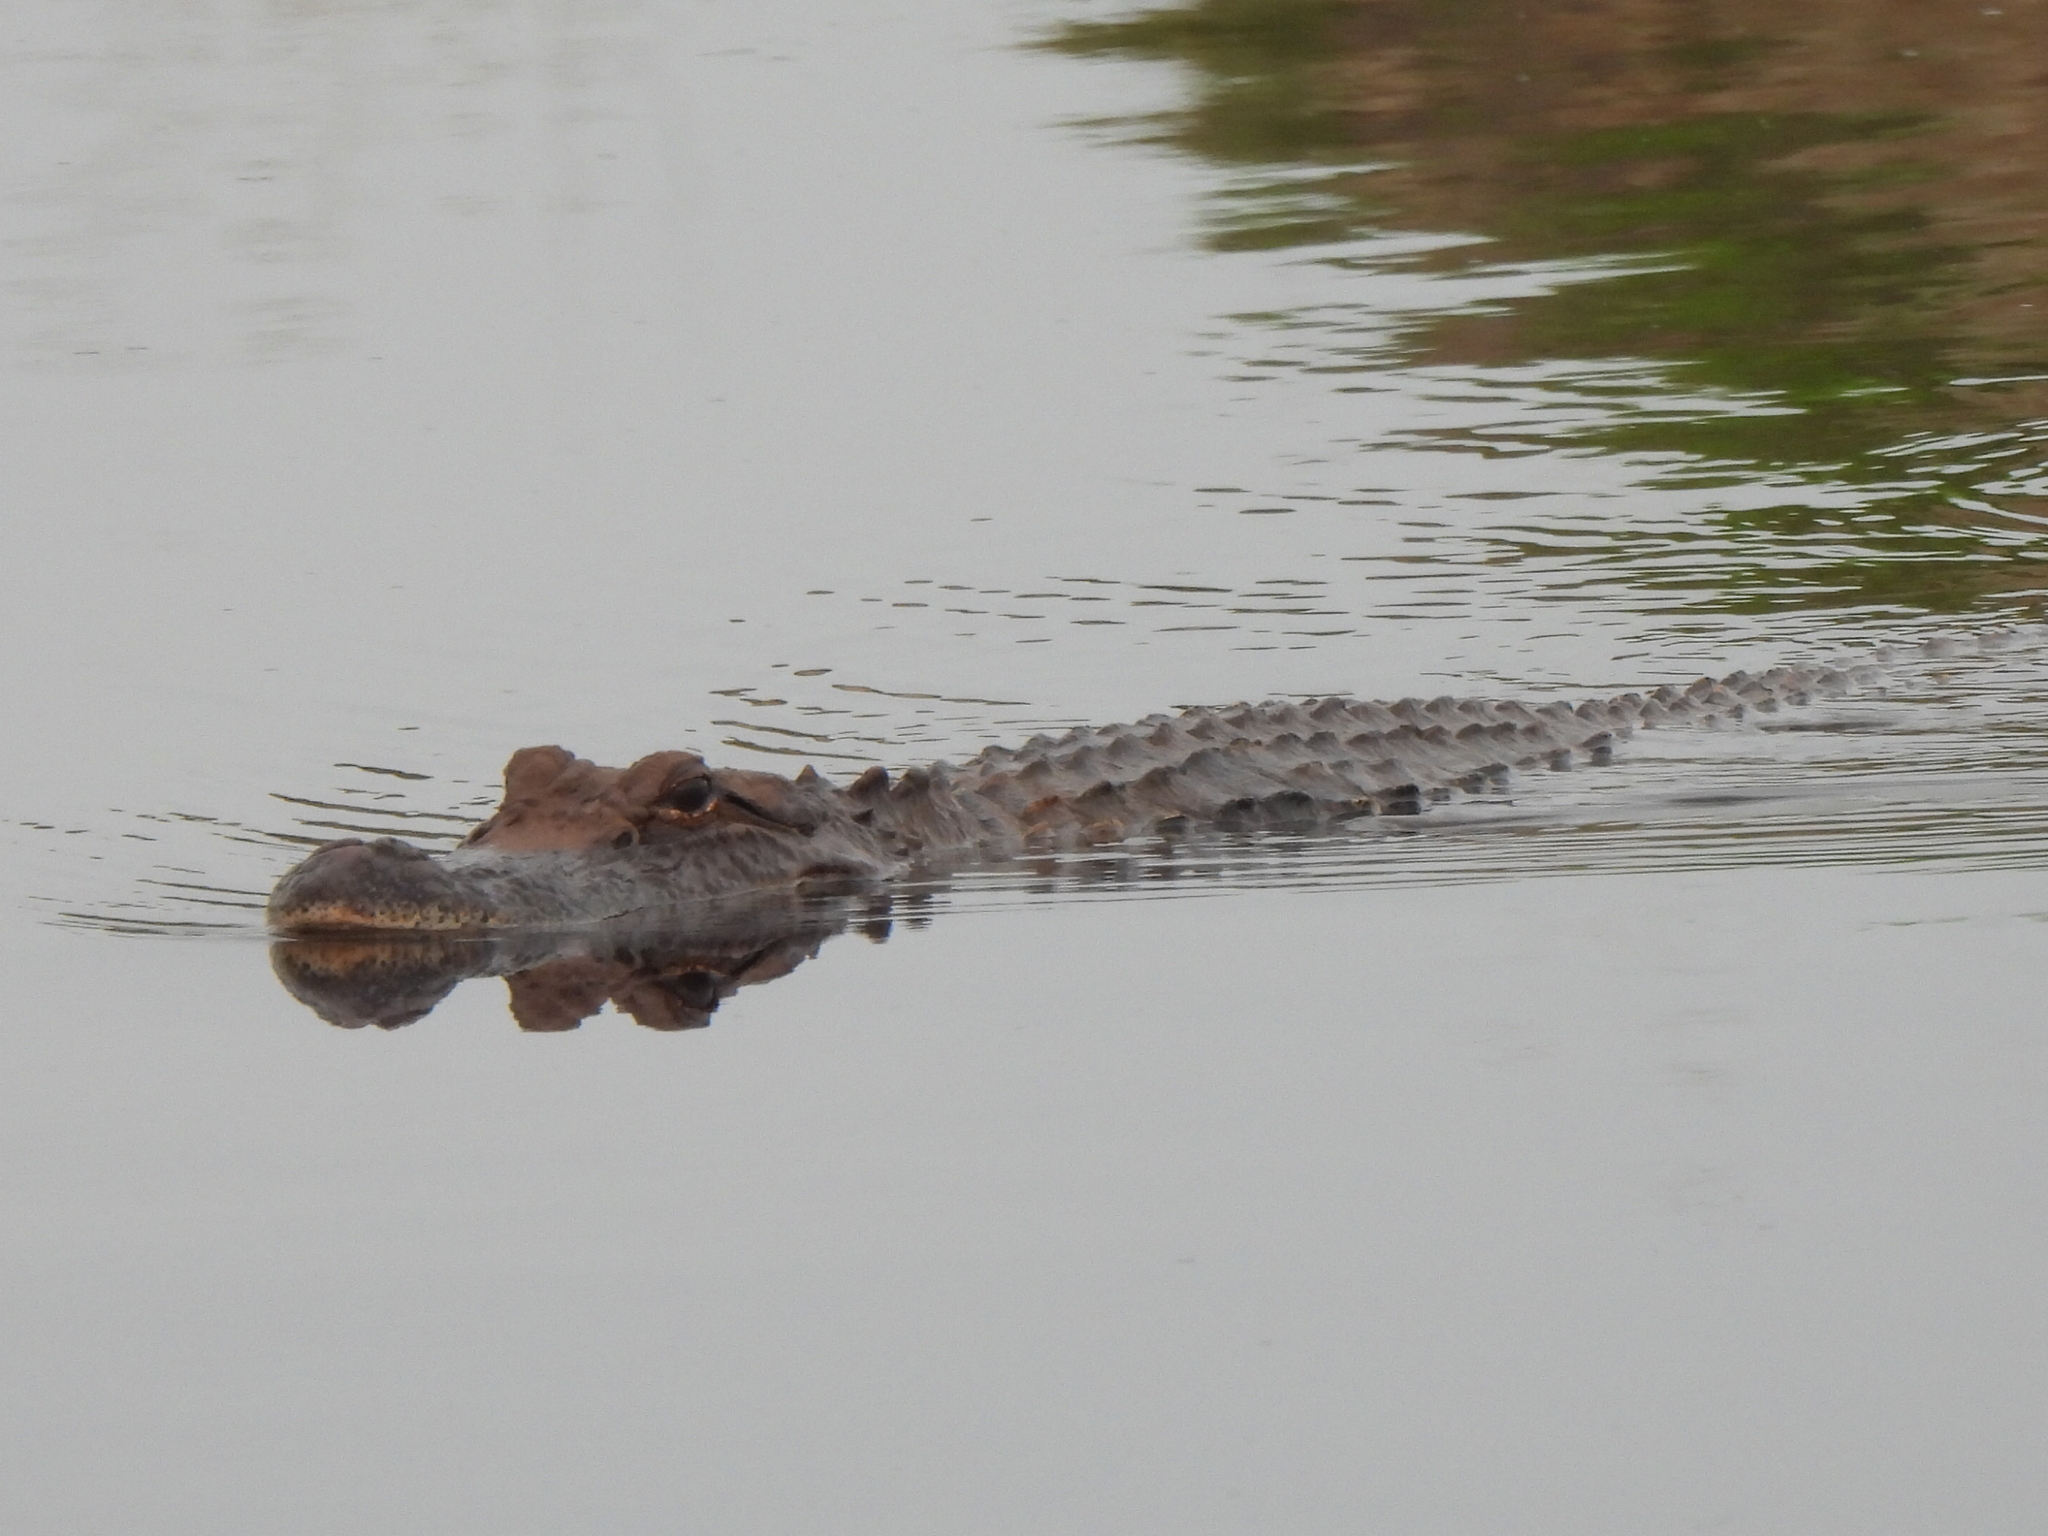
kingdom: Animalia
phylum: Chordata
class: Crocodylia
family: Alligatoridae
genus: Alligator
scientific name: Alligator mississippiensis
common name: American alligator
